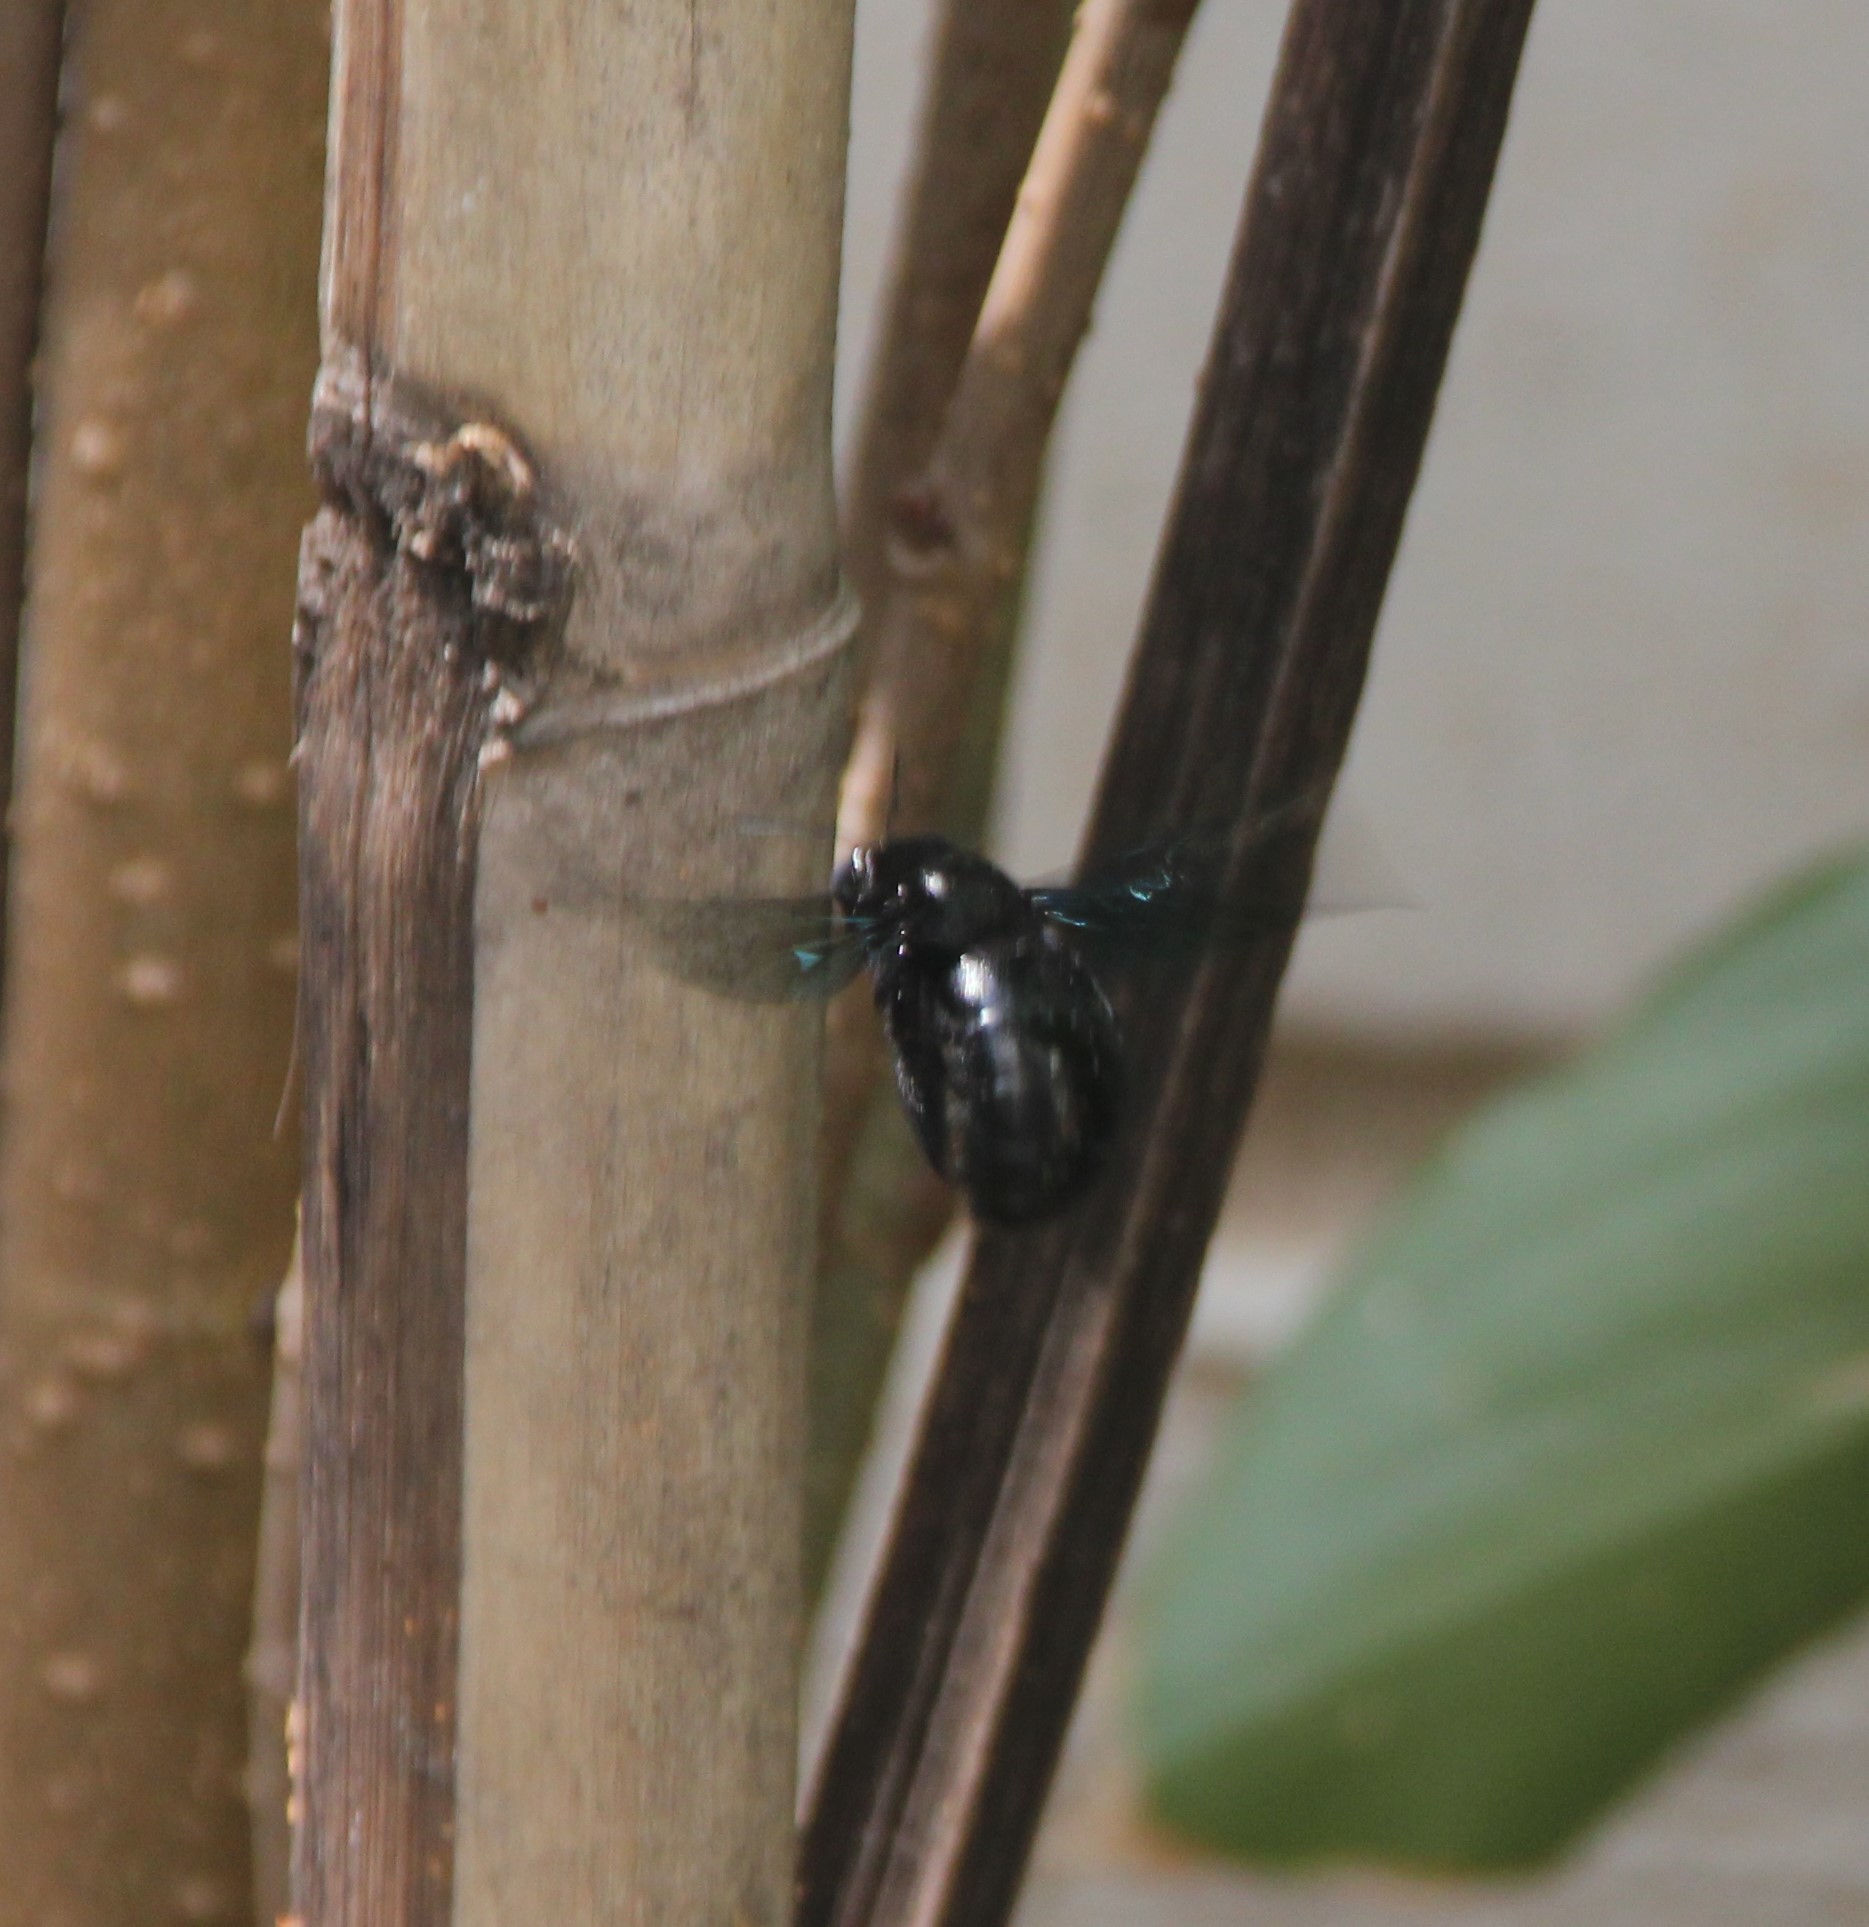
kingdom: Animalia
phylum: Arthropoda
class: Insecta
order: Hymenoptera
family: Apidae
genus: Xylocopa
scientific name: Xylocopa auripennis
